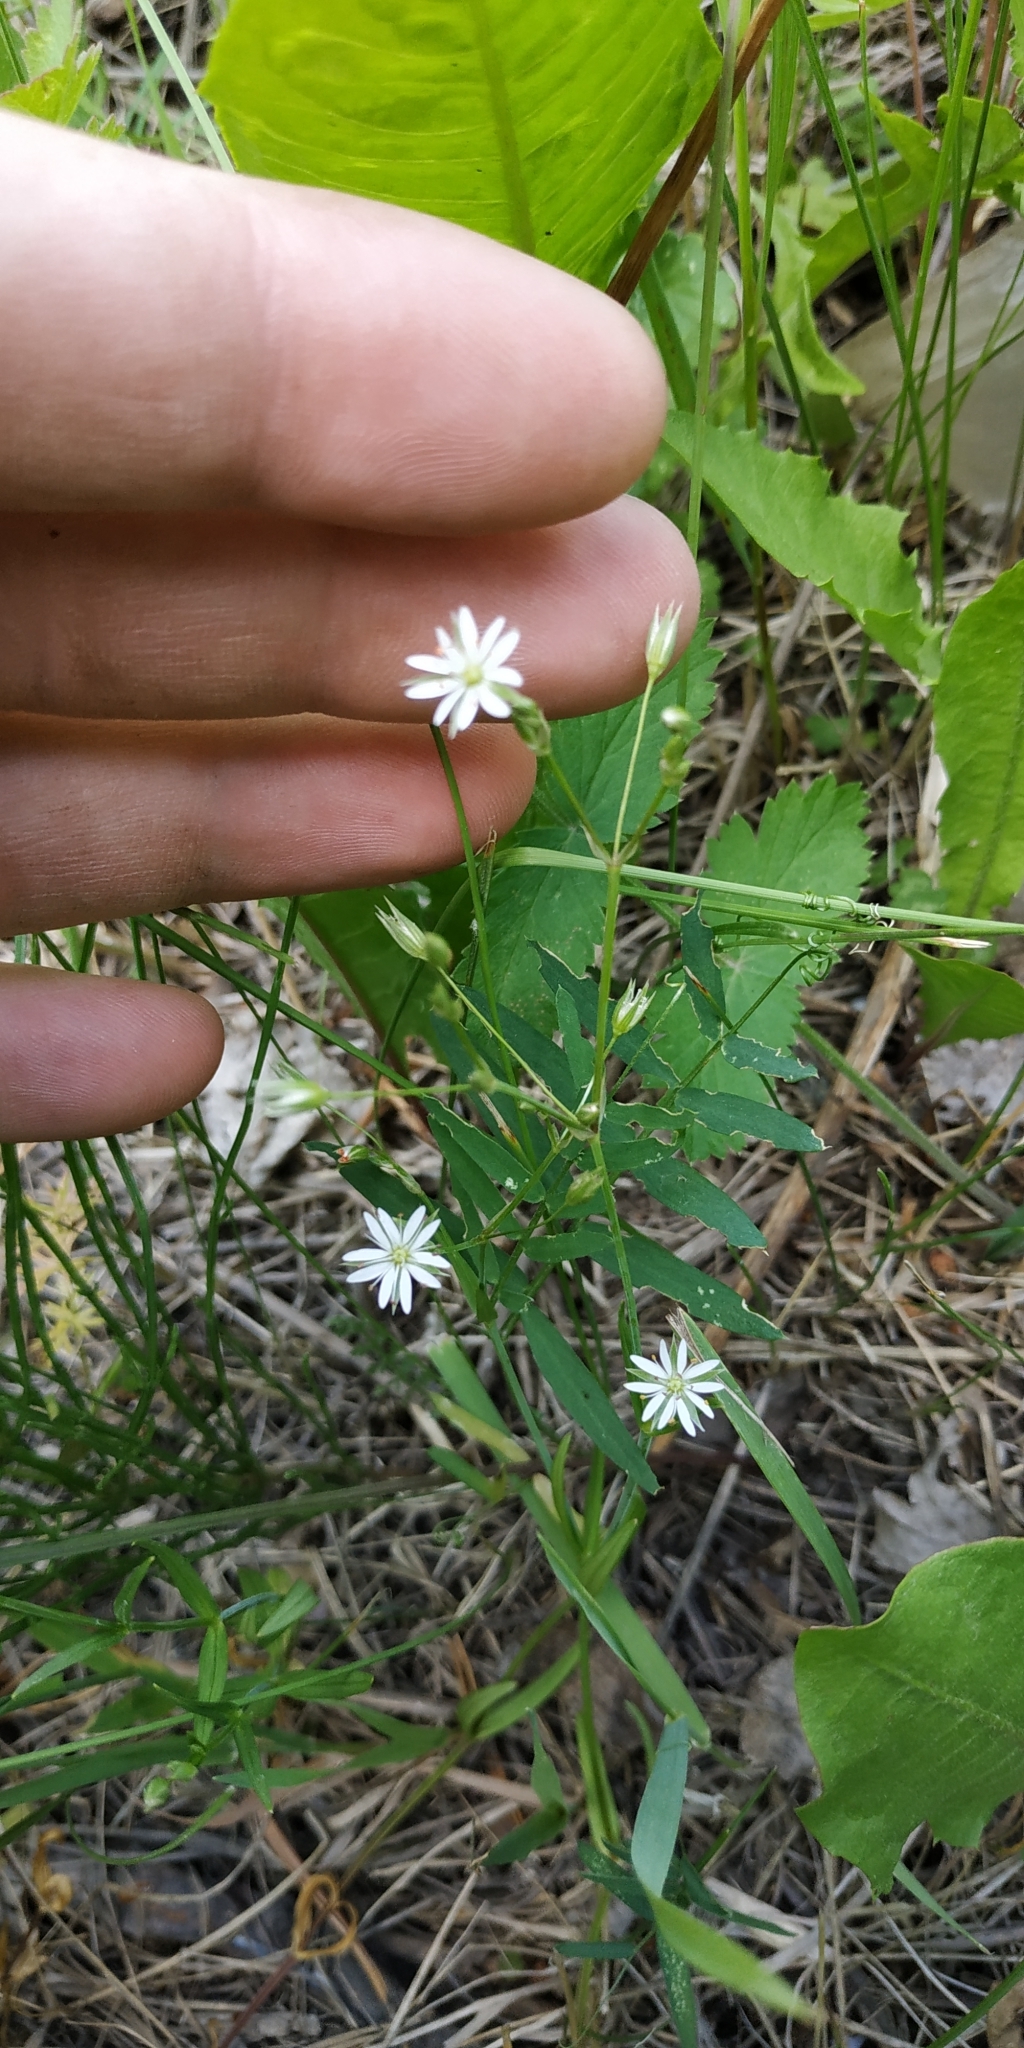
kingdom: Plantae
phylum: Tracheophyta
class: Magnoliopsida
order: Caryophyllales
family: Caryophyllaceae
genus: Stellaria
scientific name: Stellaria graminea
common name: Grass-like starwort
